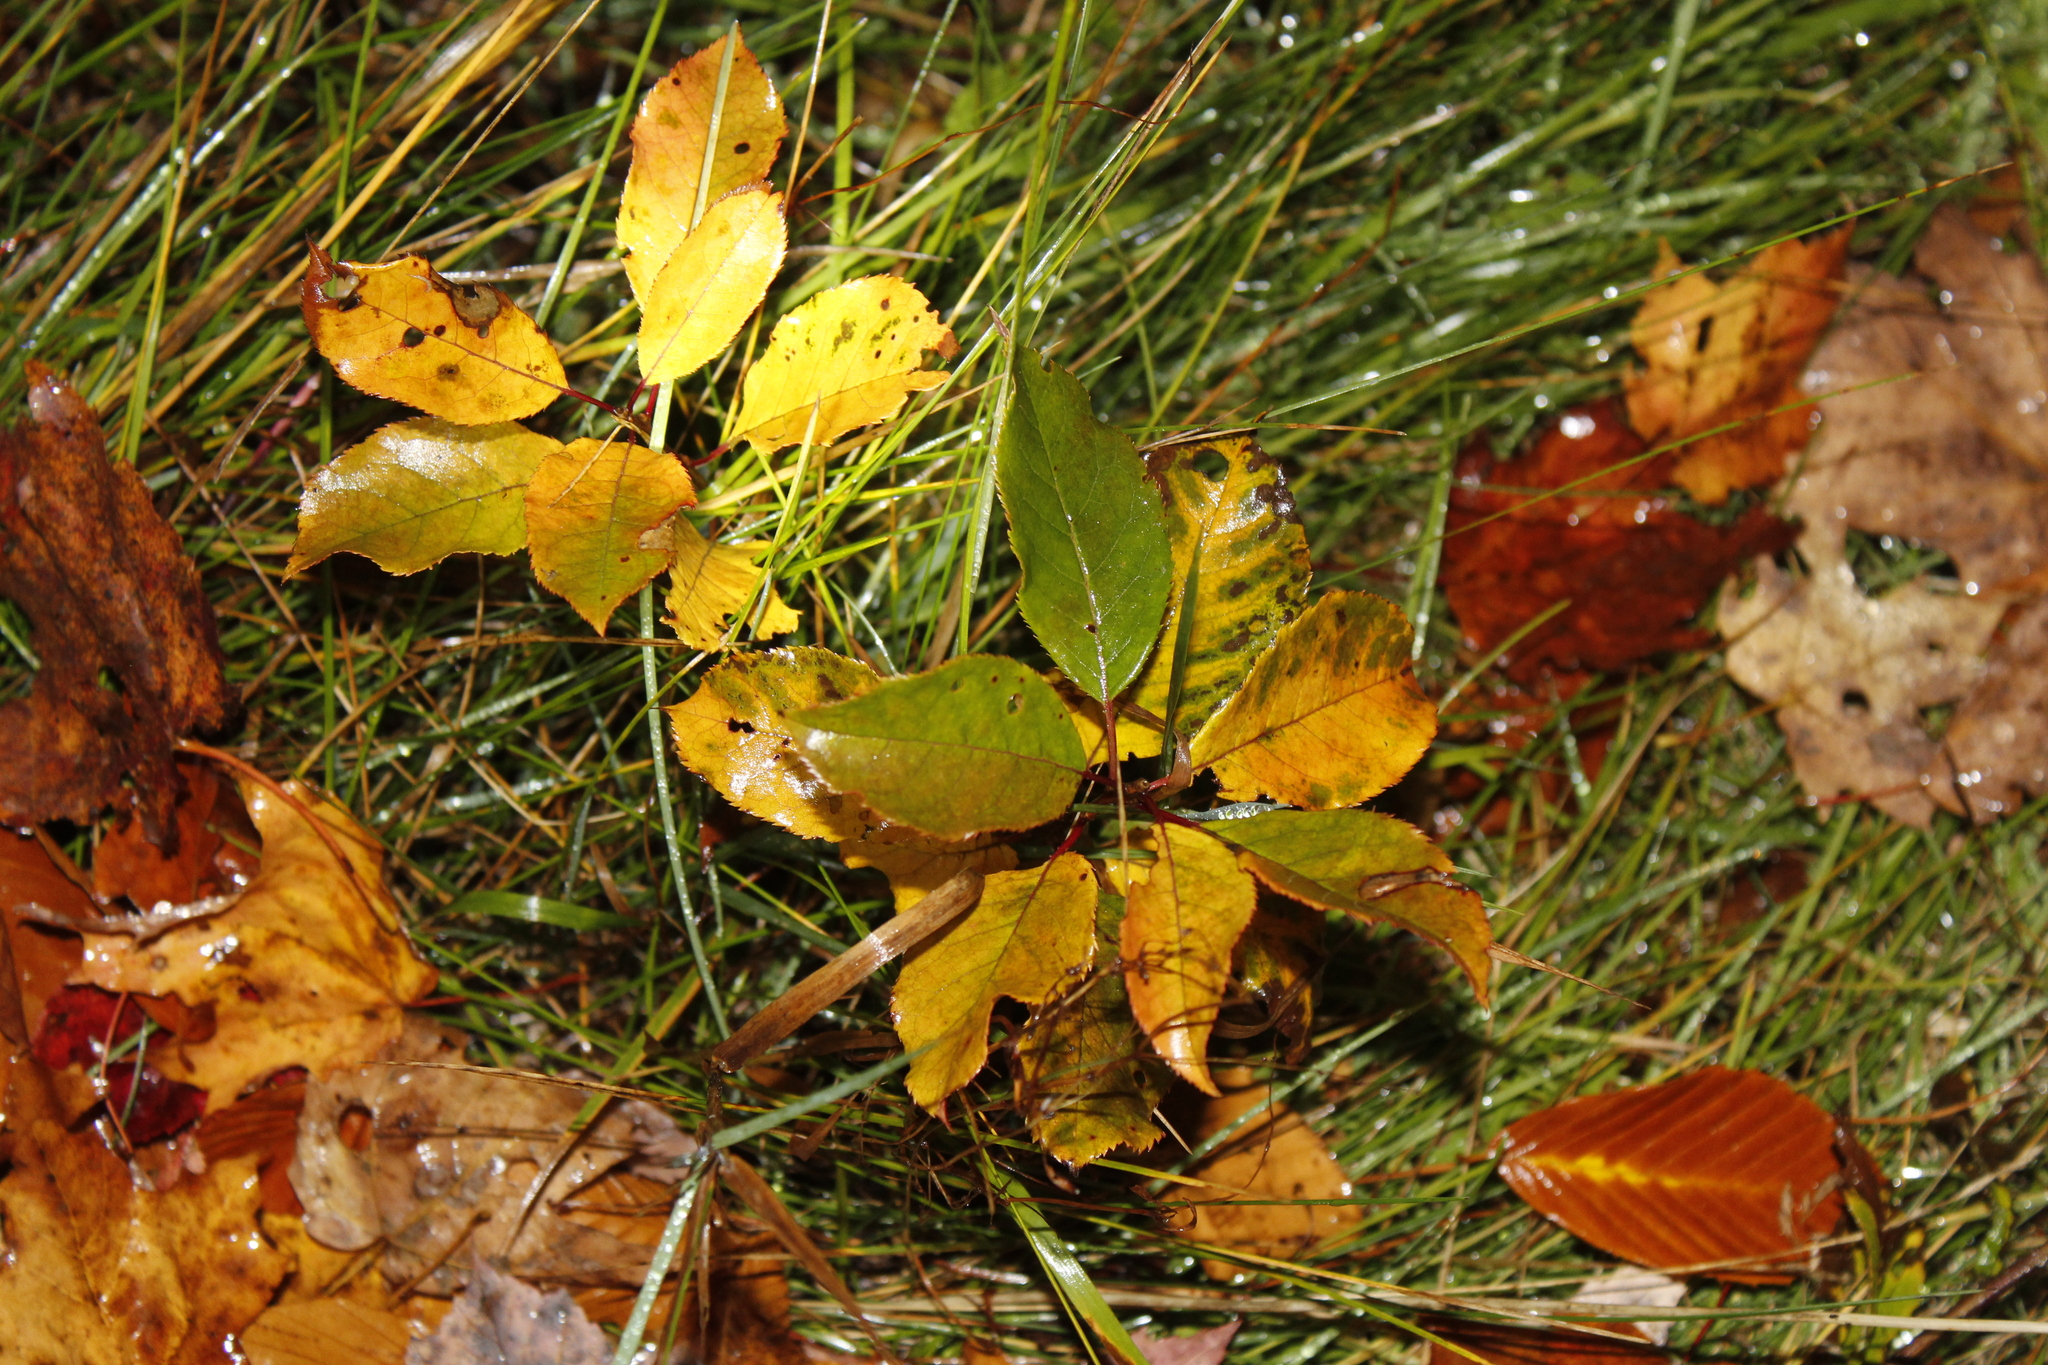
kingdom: Plantae
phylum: Tracheophyta
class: Magnoliopsida
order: Rosales
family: Rosaceae
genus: Prunus
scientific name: Prunus virginiana
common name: Chokecherry
